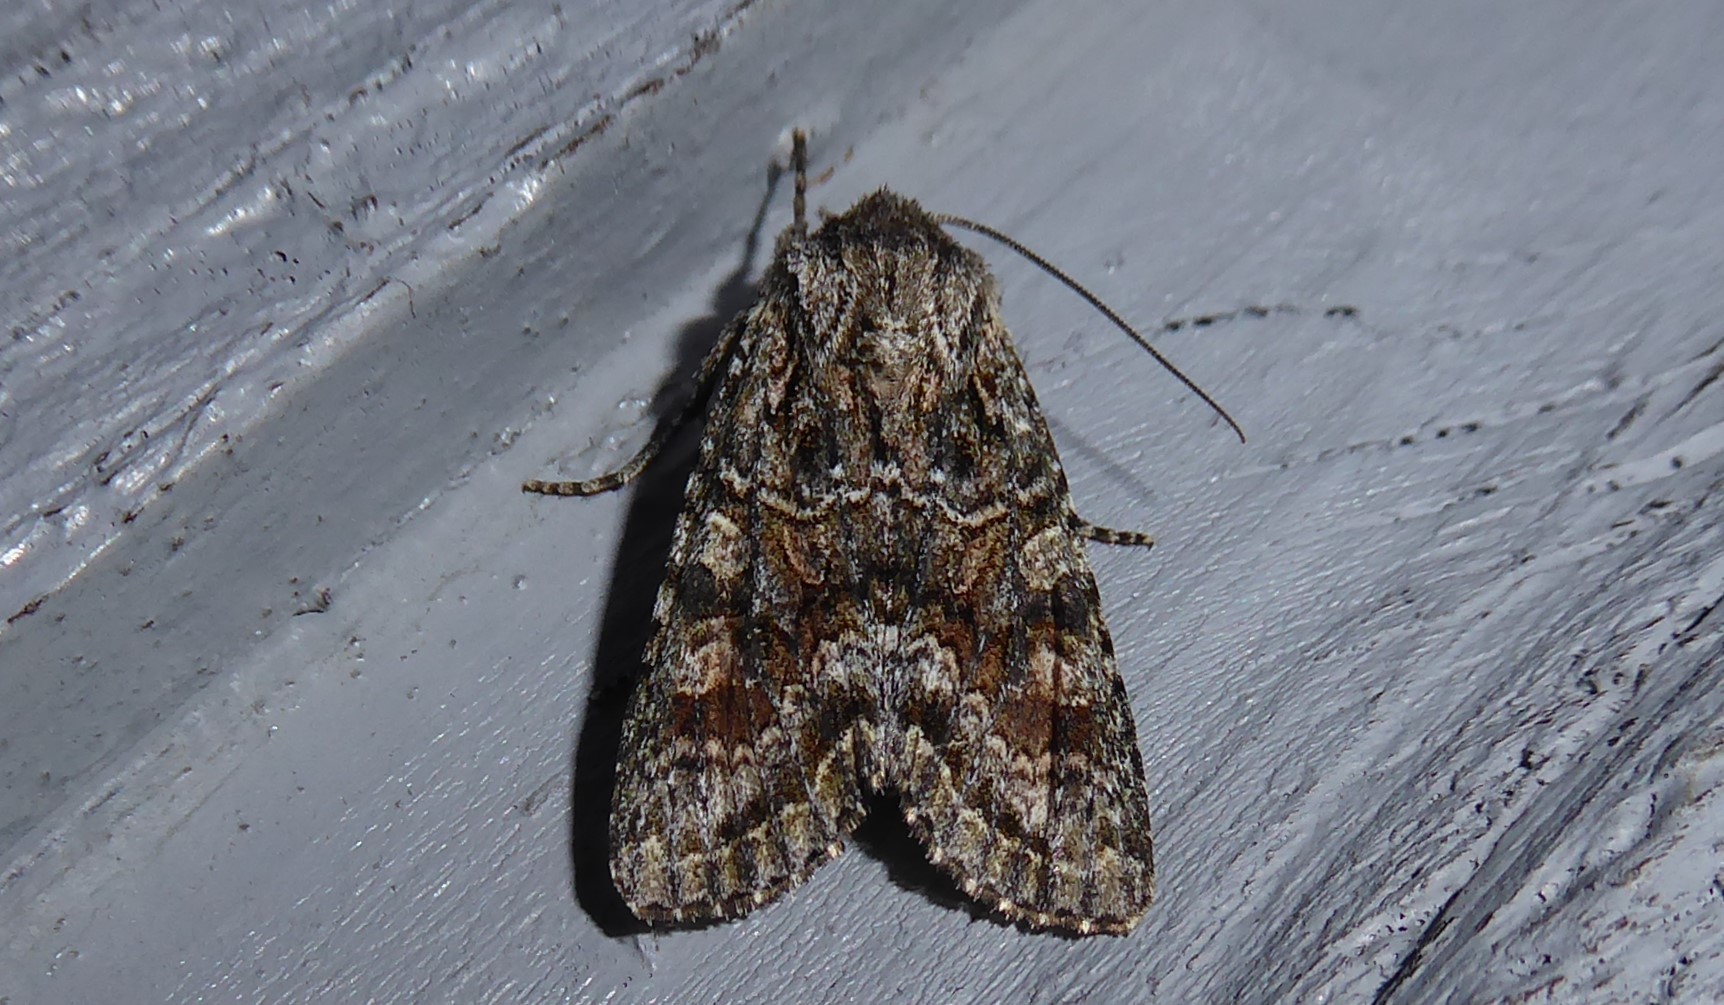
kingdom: Animalia
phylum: Arthropoda
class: Insecta
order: Lepidoptera
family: Noctuidae
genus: Ichneutica
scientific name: Ichneutica mutans
